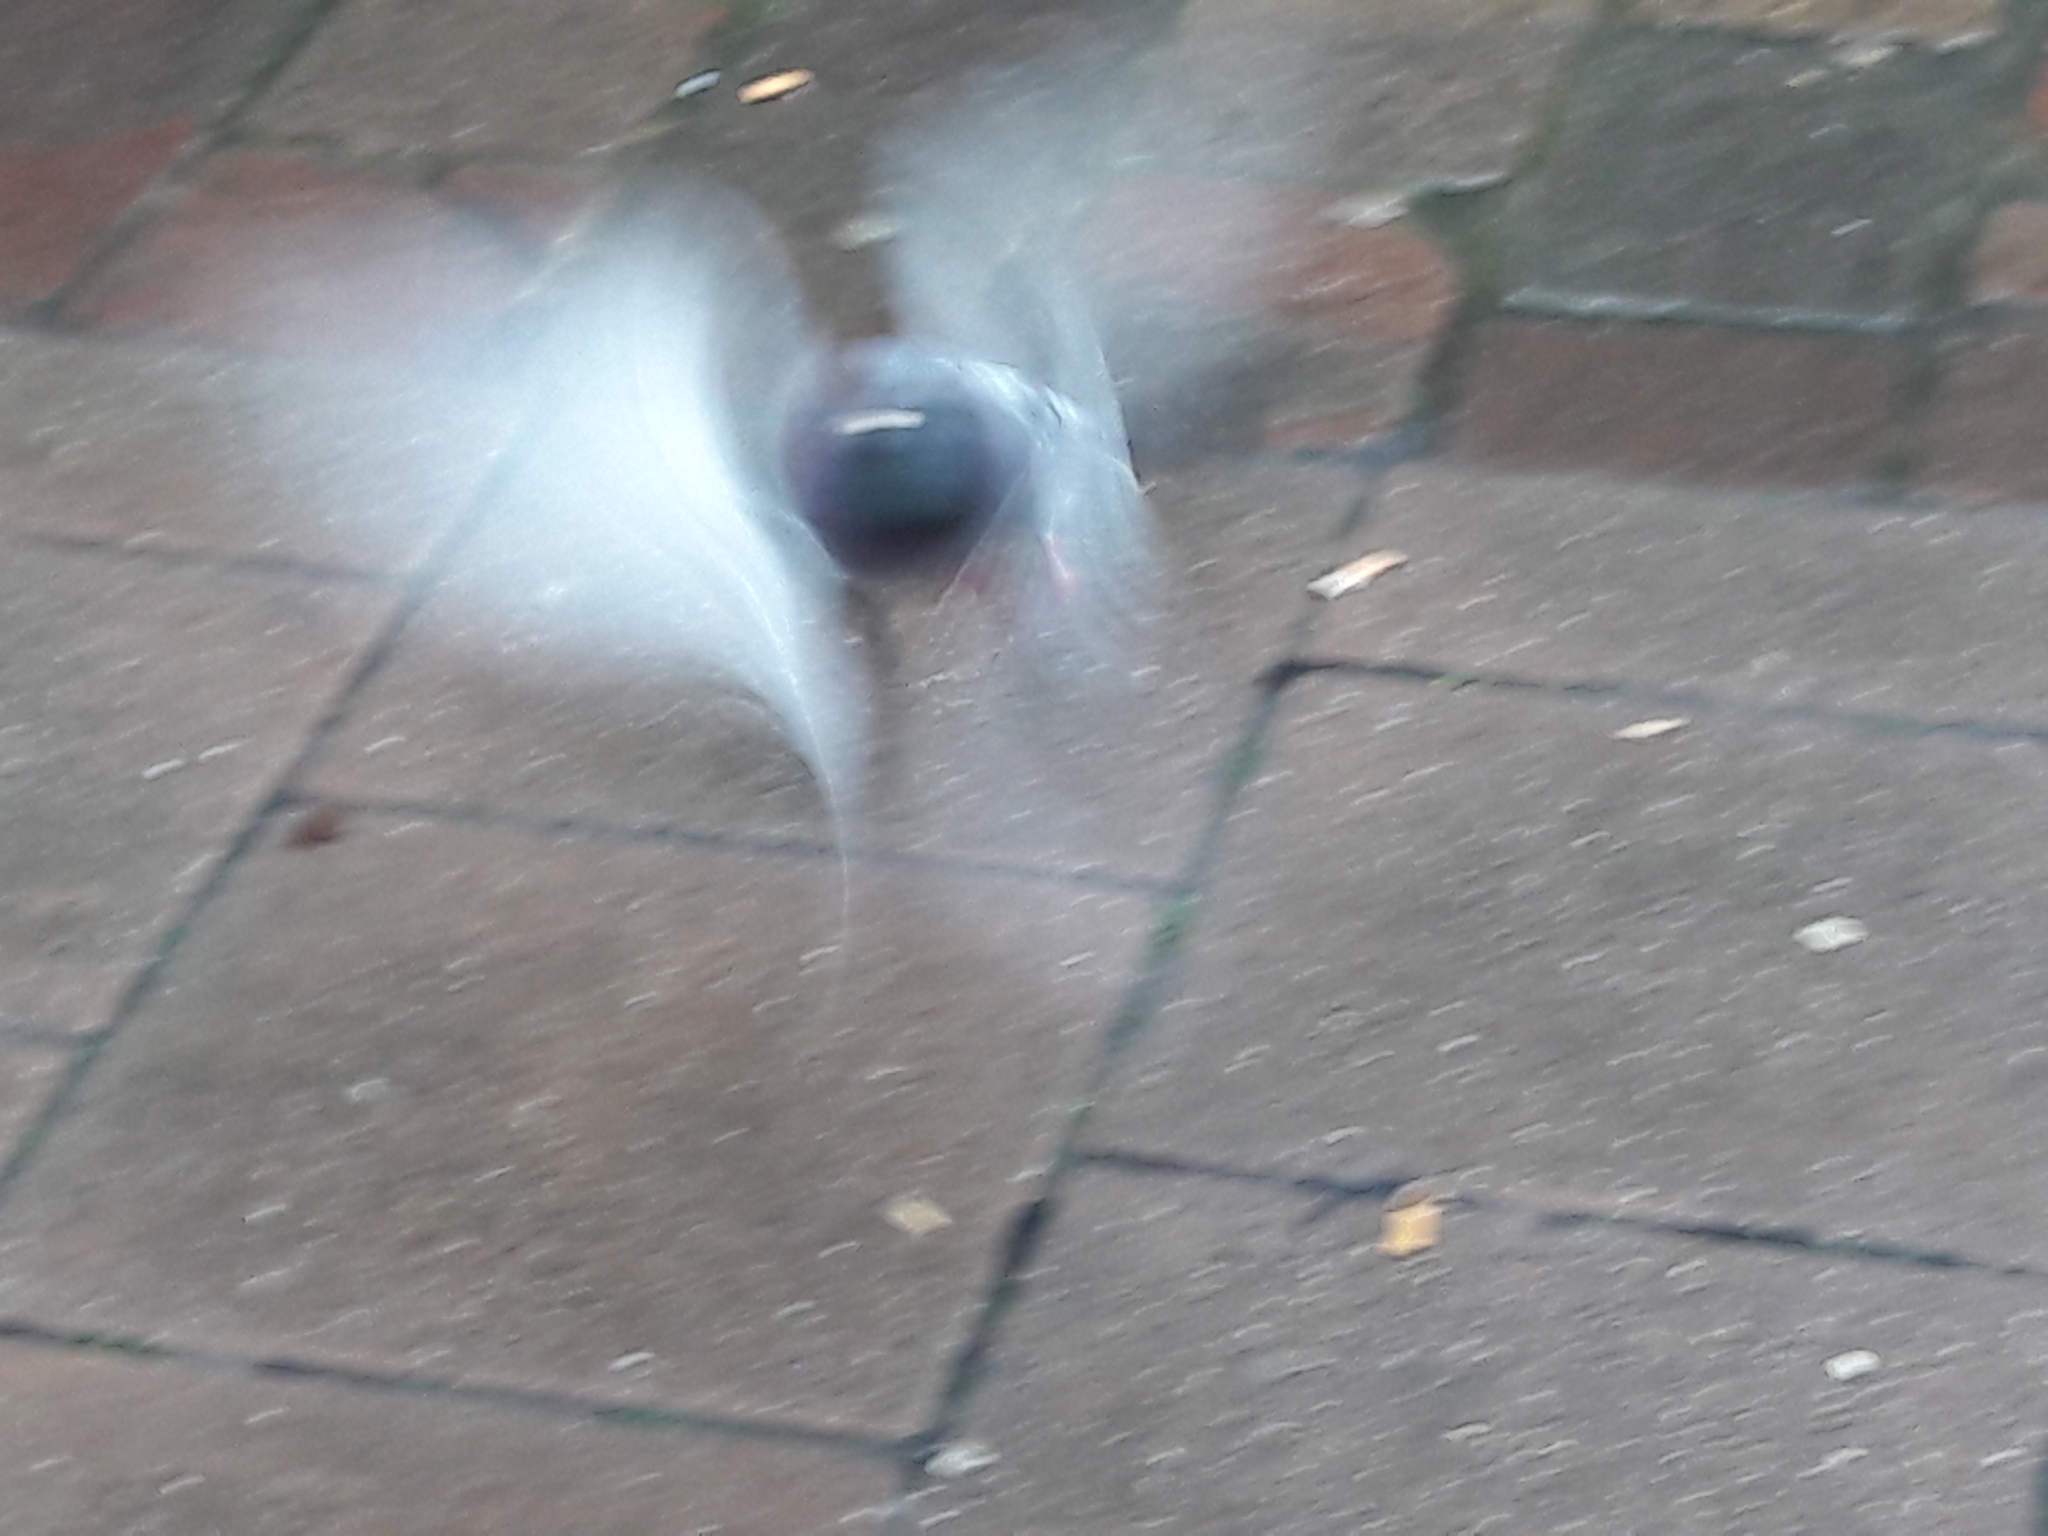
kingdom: Animalia
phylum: Chordata
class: Aves
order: Columbiformes
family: Columbidae
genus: Columba
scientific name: Columba livia
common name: Rock pigeon
